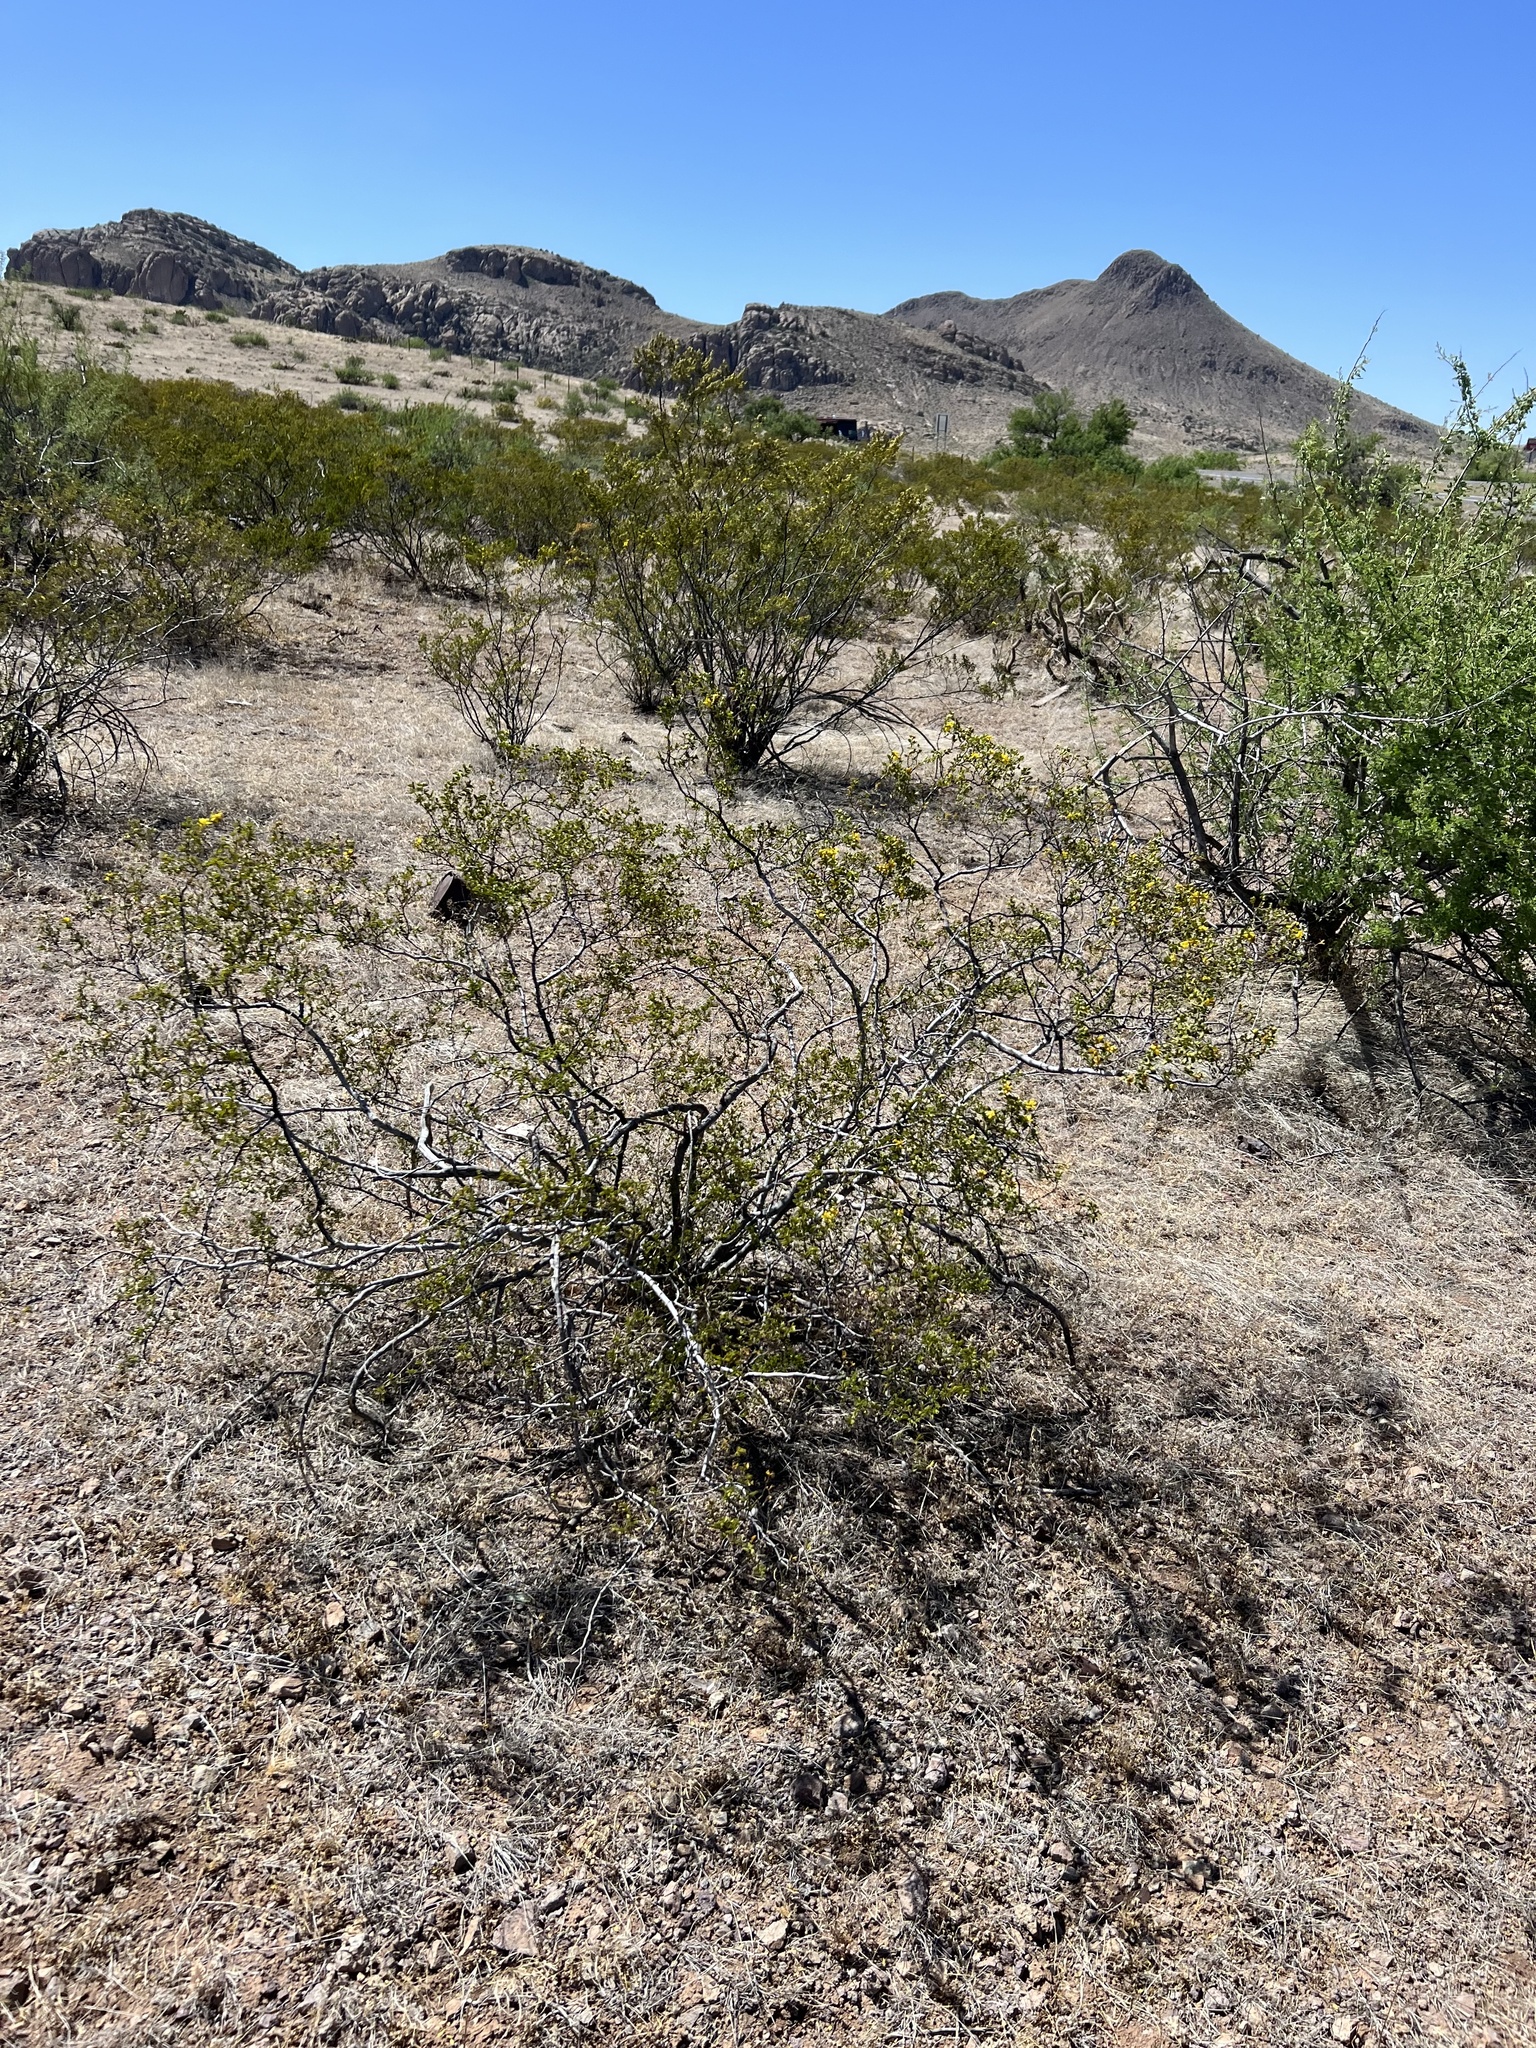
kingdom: Plantae
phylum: Tracheophyta
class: Magnoliopsida
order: Zygophyllales
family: Zygophyllaceae
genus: Larrea
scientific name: Larrea tridentata
